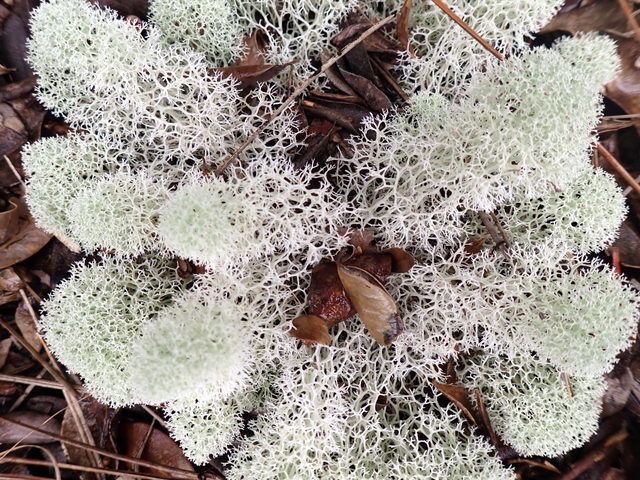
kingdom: Fungi
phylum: Ascomycota
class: Lecanoromycetes
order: Lecanorales
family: Cladoniaceae
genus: Cladonia
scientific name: Cladonia evansii
